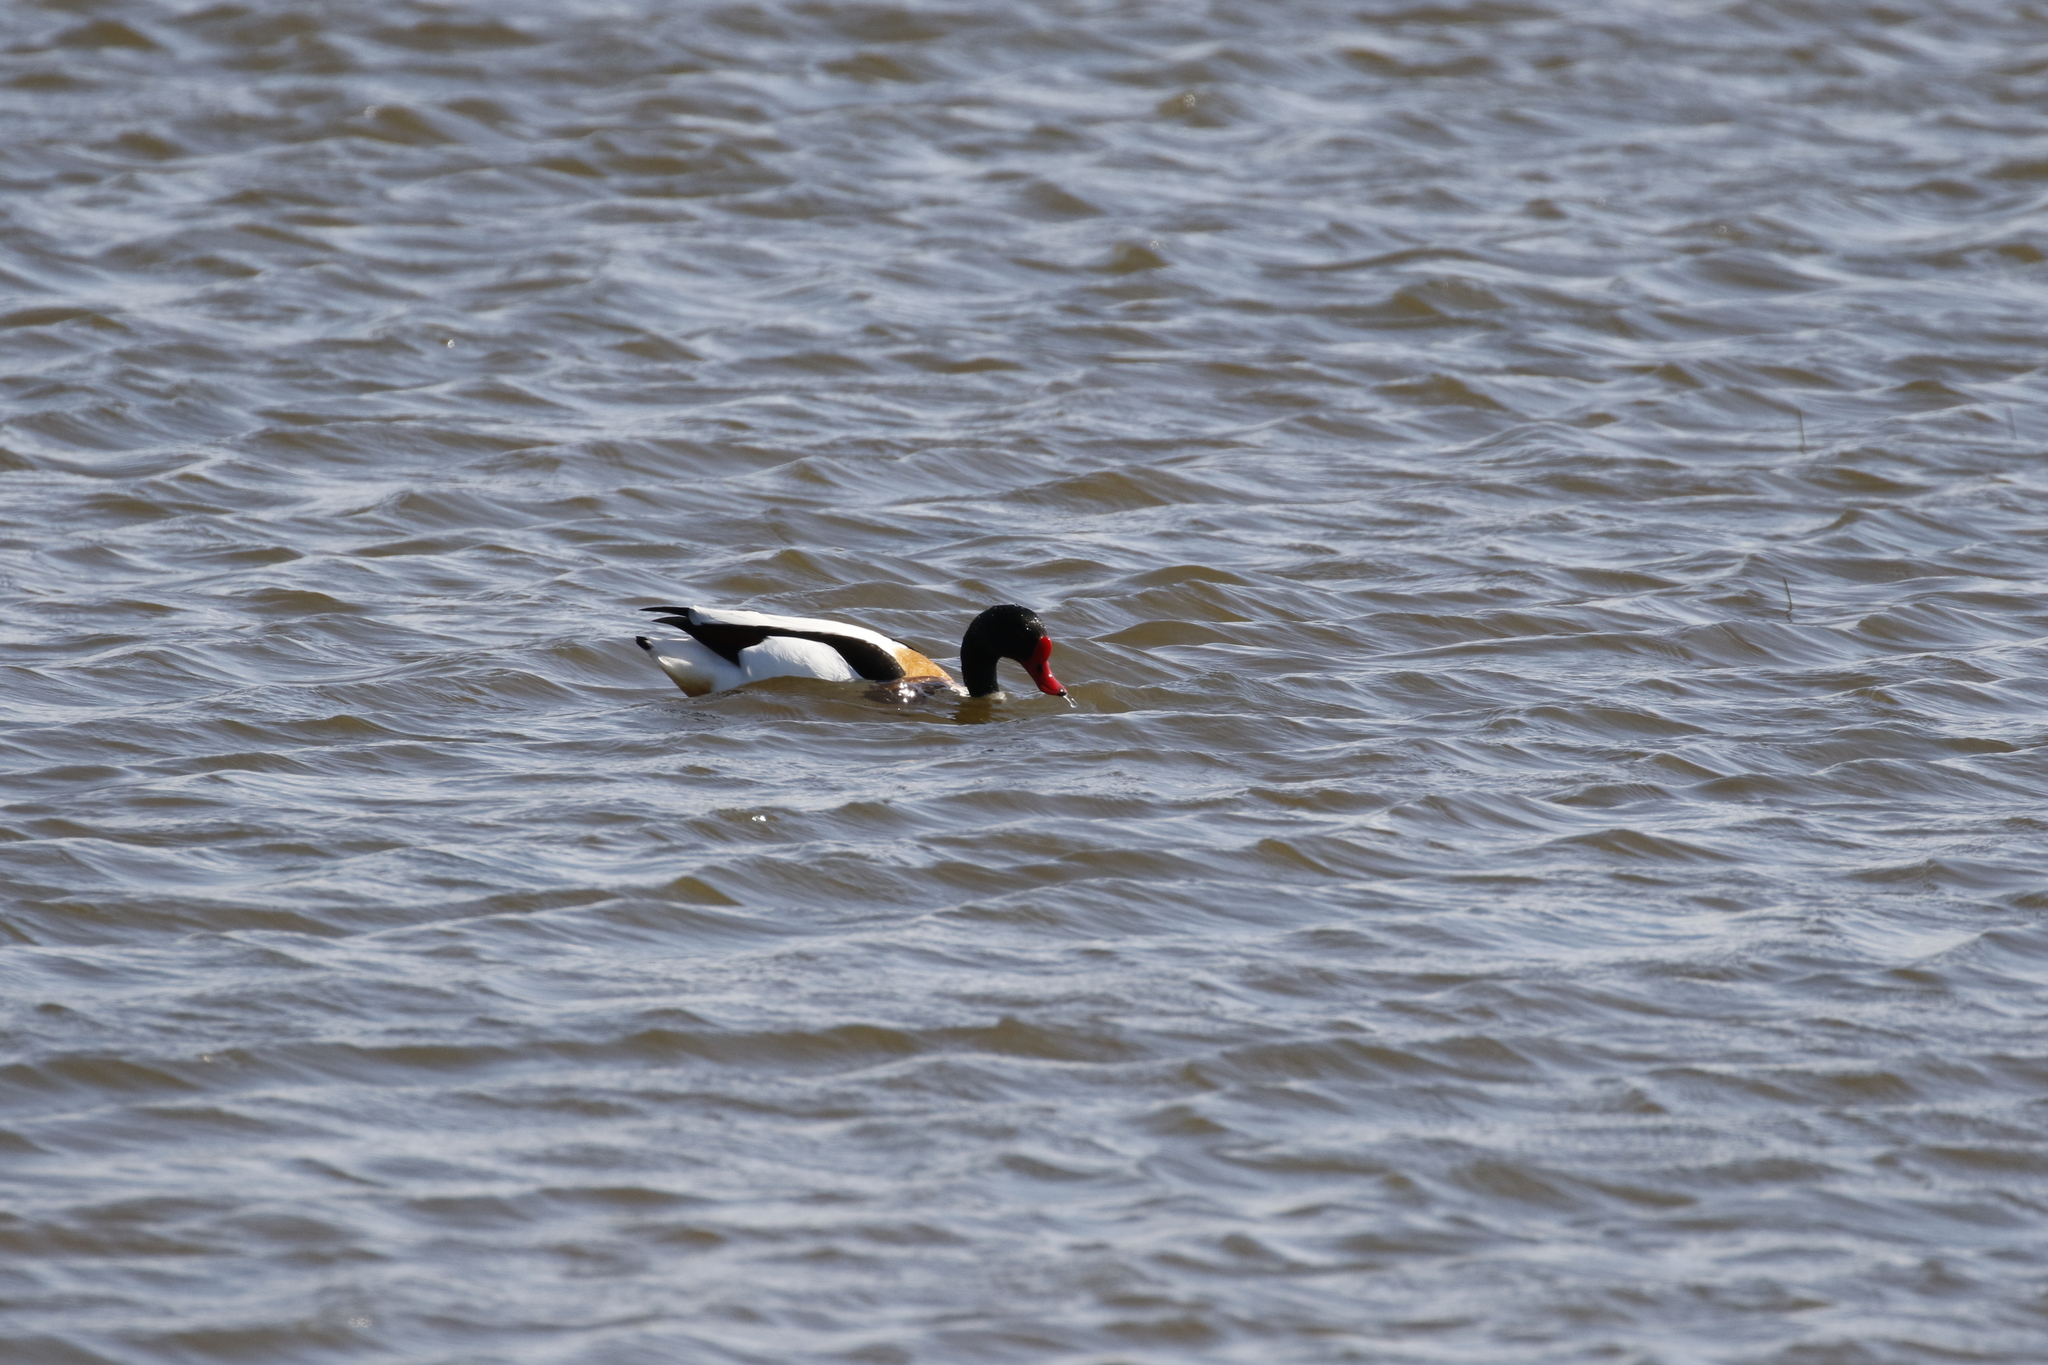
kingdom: Animalia
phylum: Chordata
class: Aves
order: Anseriformes
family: Anatidae
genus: Tadorna
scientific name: Tadorna tadorna
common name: Common shelduck
